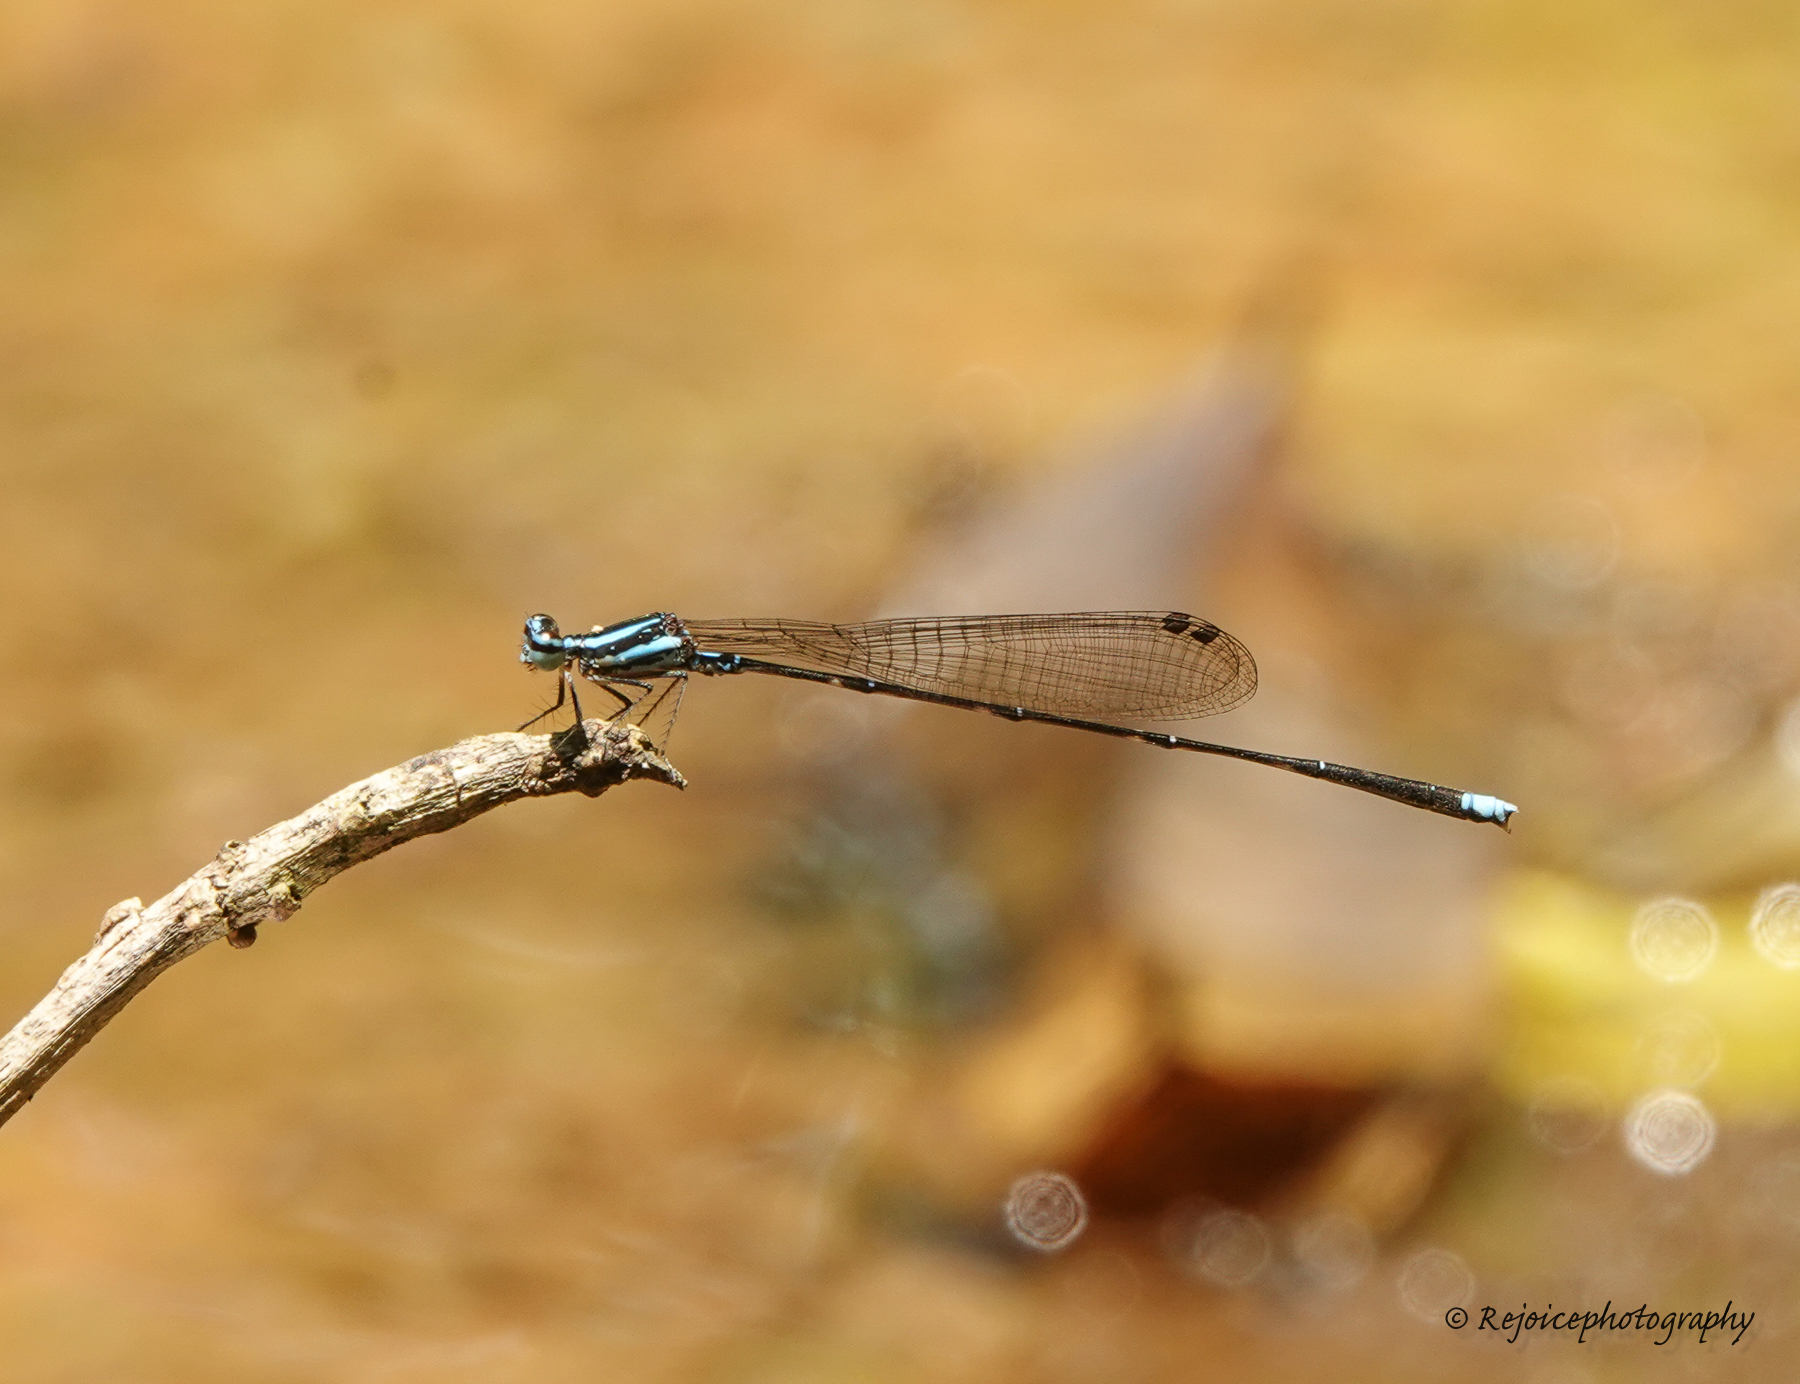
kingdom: Animalia
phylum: Arthropoda
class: Insecta
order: Odonata
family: Platycnemididae
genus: Elattoneura
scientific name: Elattoneura campioni
